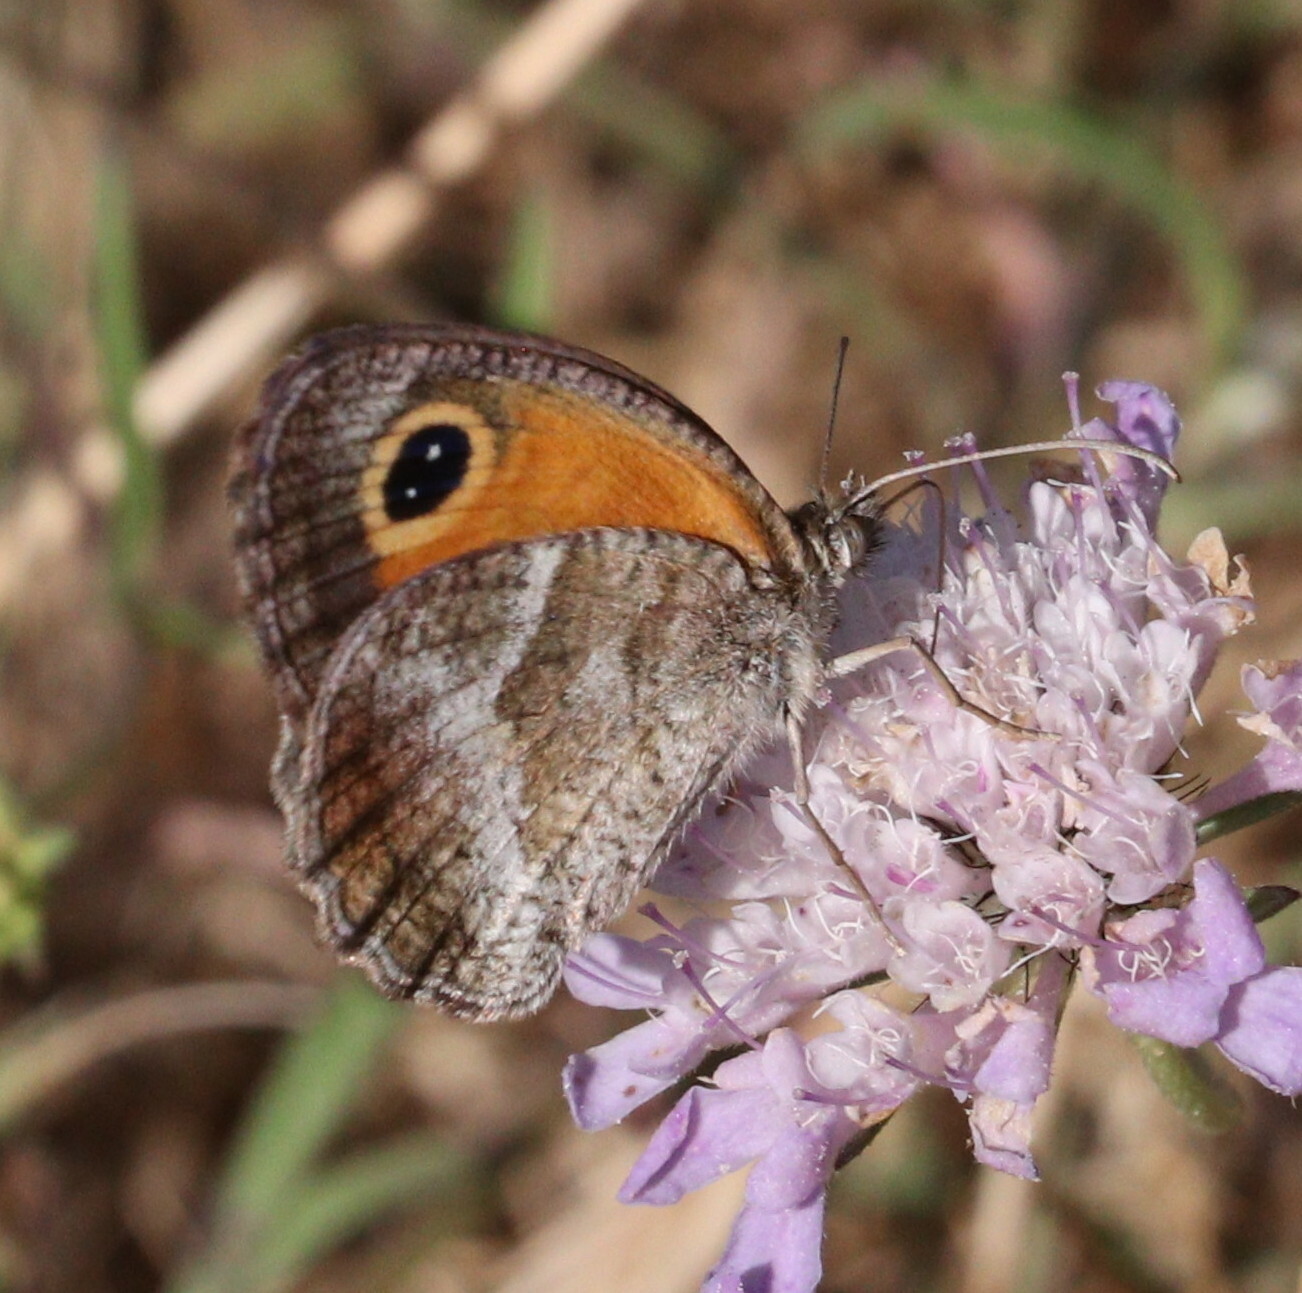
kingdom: Animalia
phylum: Arthropoda
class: Insecta
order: Lepidoptera
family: Nymphalidae
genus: Pyronia
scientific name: Pyronia cecilia
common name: Southern gatekeeper
